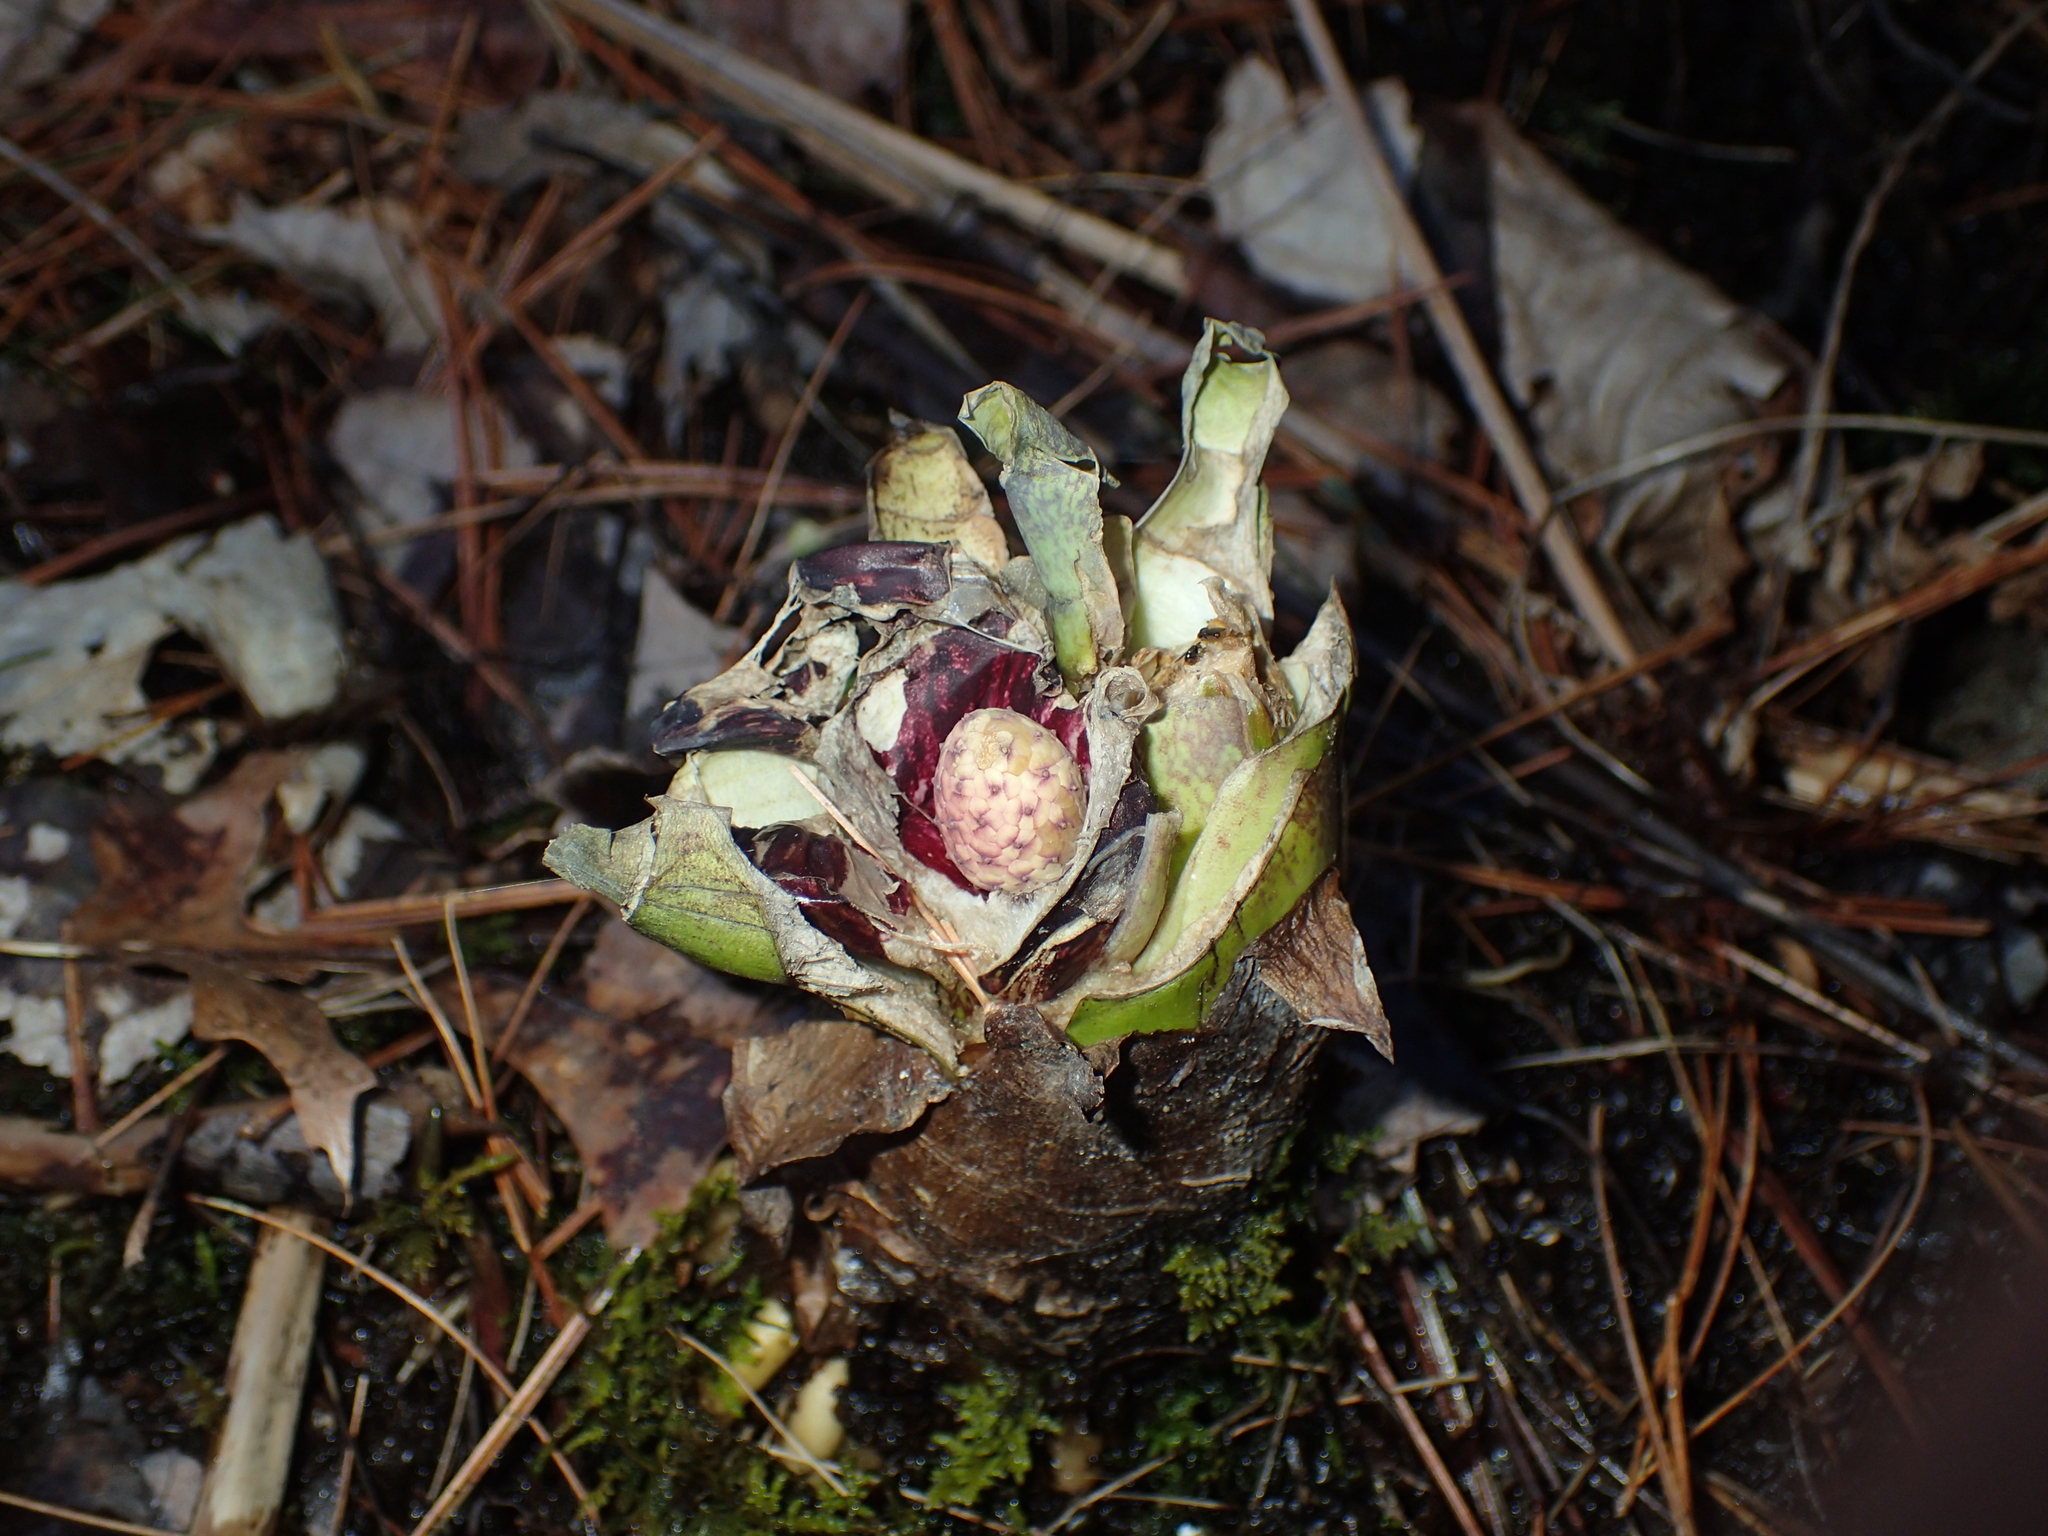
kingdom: Plantae
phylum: Tracheophyta
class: Liliopsida
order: Alismatales
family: Araceae
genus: Symplocarpus
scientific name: Symplocarpus foetidus
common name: Eastern skunk cabbage
